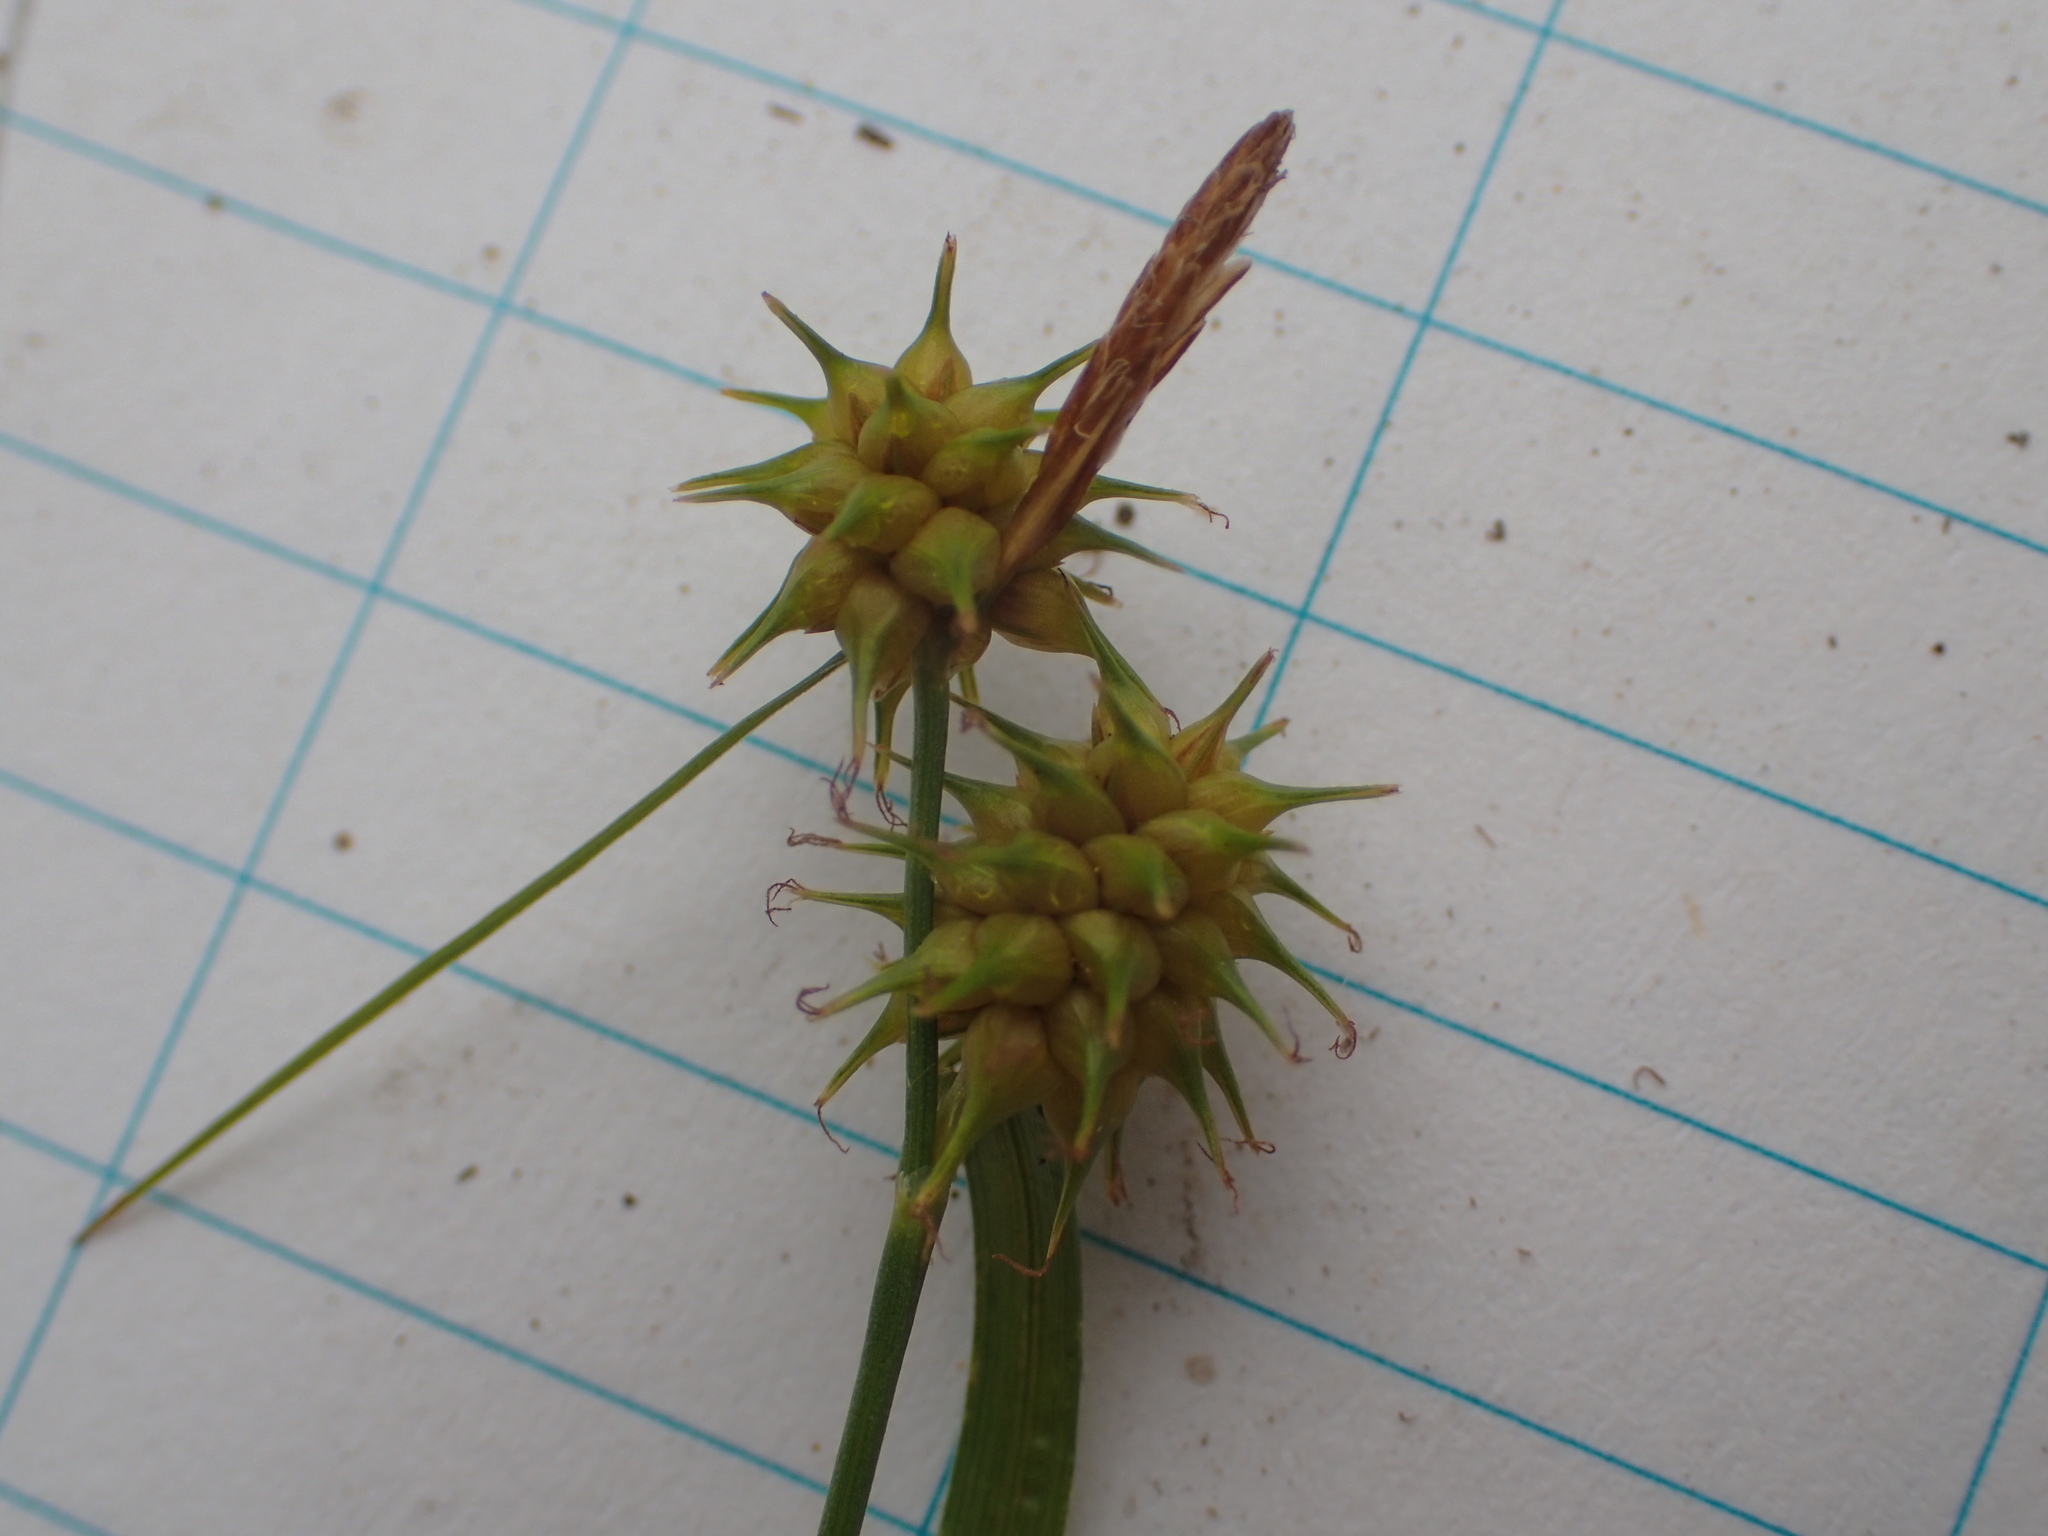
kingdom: Plantae
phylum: Tracheophyta
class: Liliopsida
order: Poales
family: Cyperaceae
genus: Carex
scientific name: Carex flava
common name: Large yellow-sedge
